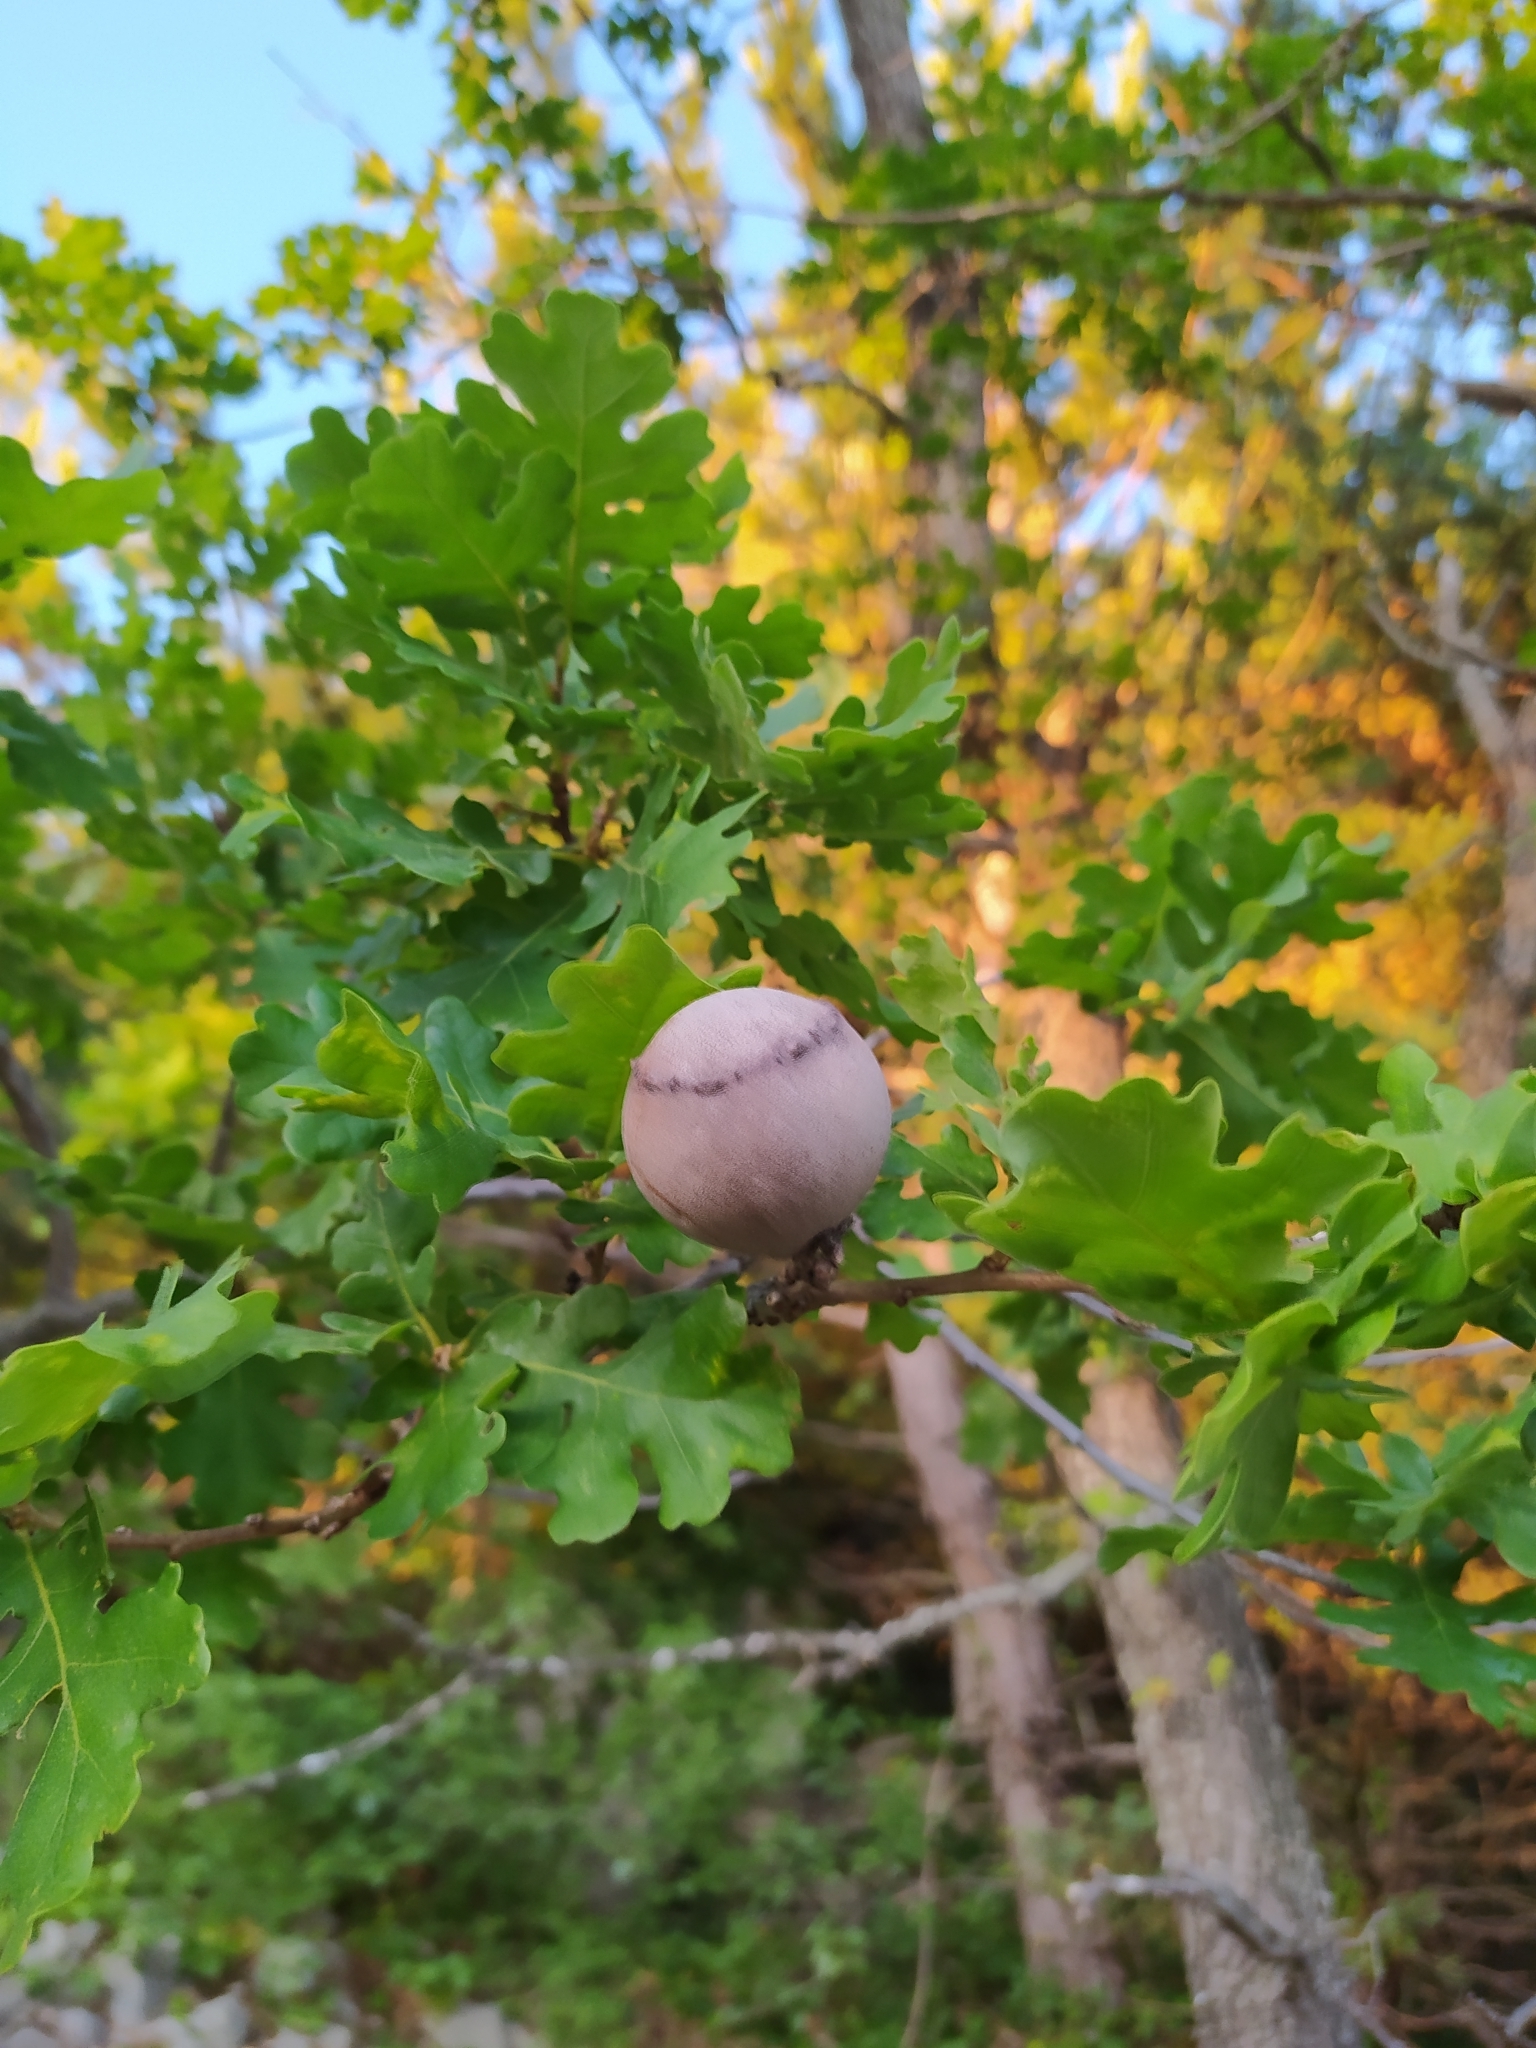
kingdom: Plantae
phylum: Tracheophyta
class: Magnoliopsida
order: Fagales
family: Fagaceae
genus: Quercus
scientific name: Quercus pubescens
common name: Downy oak
